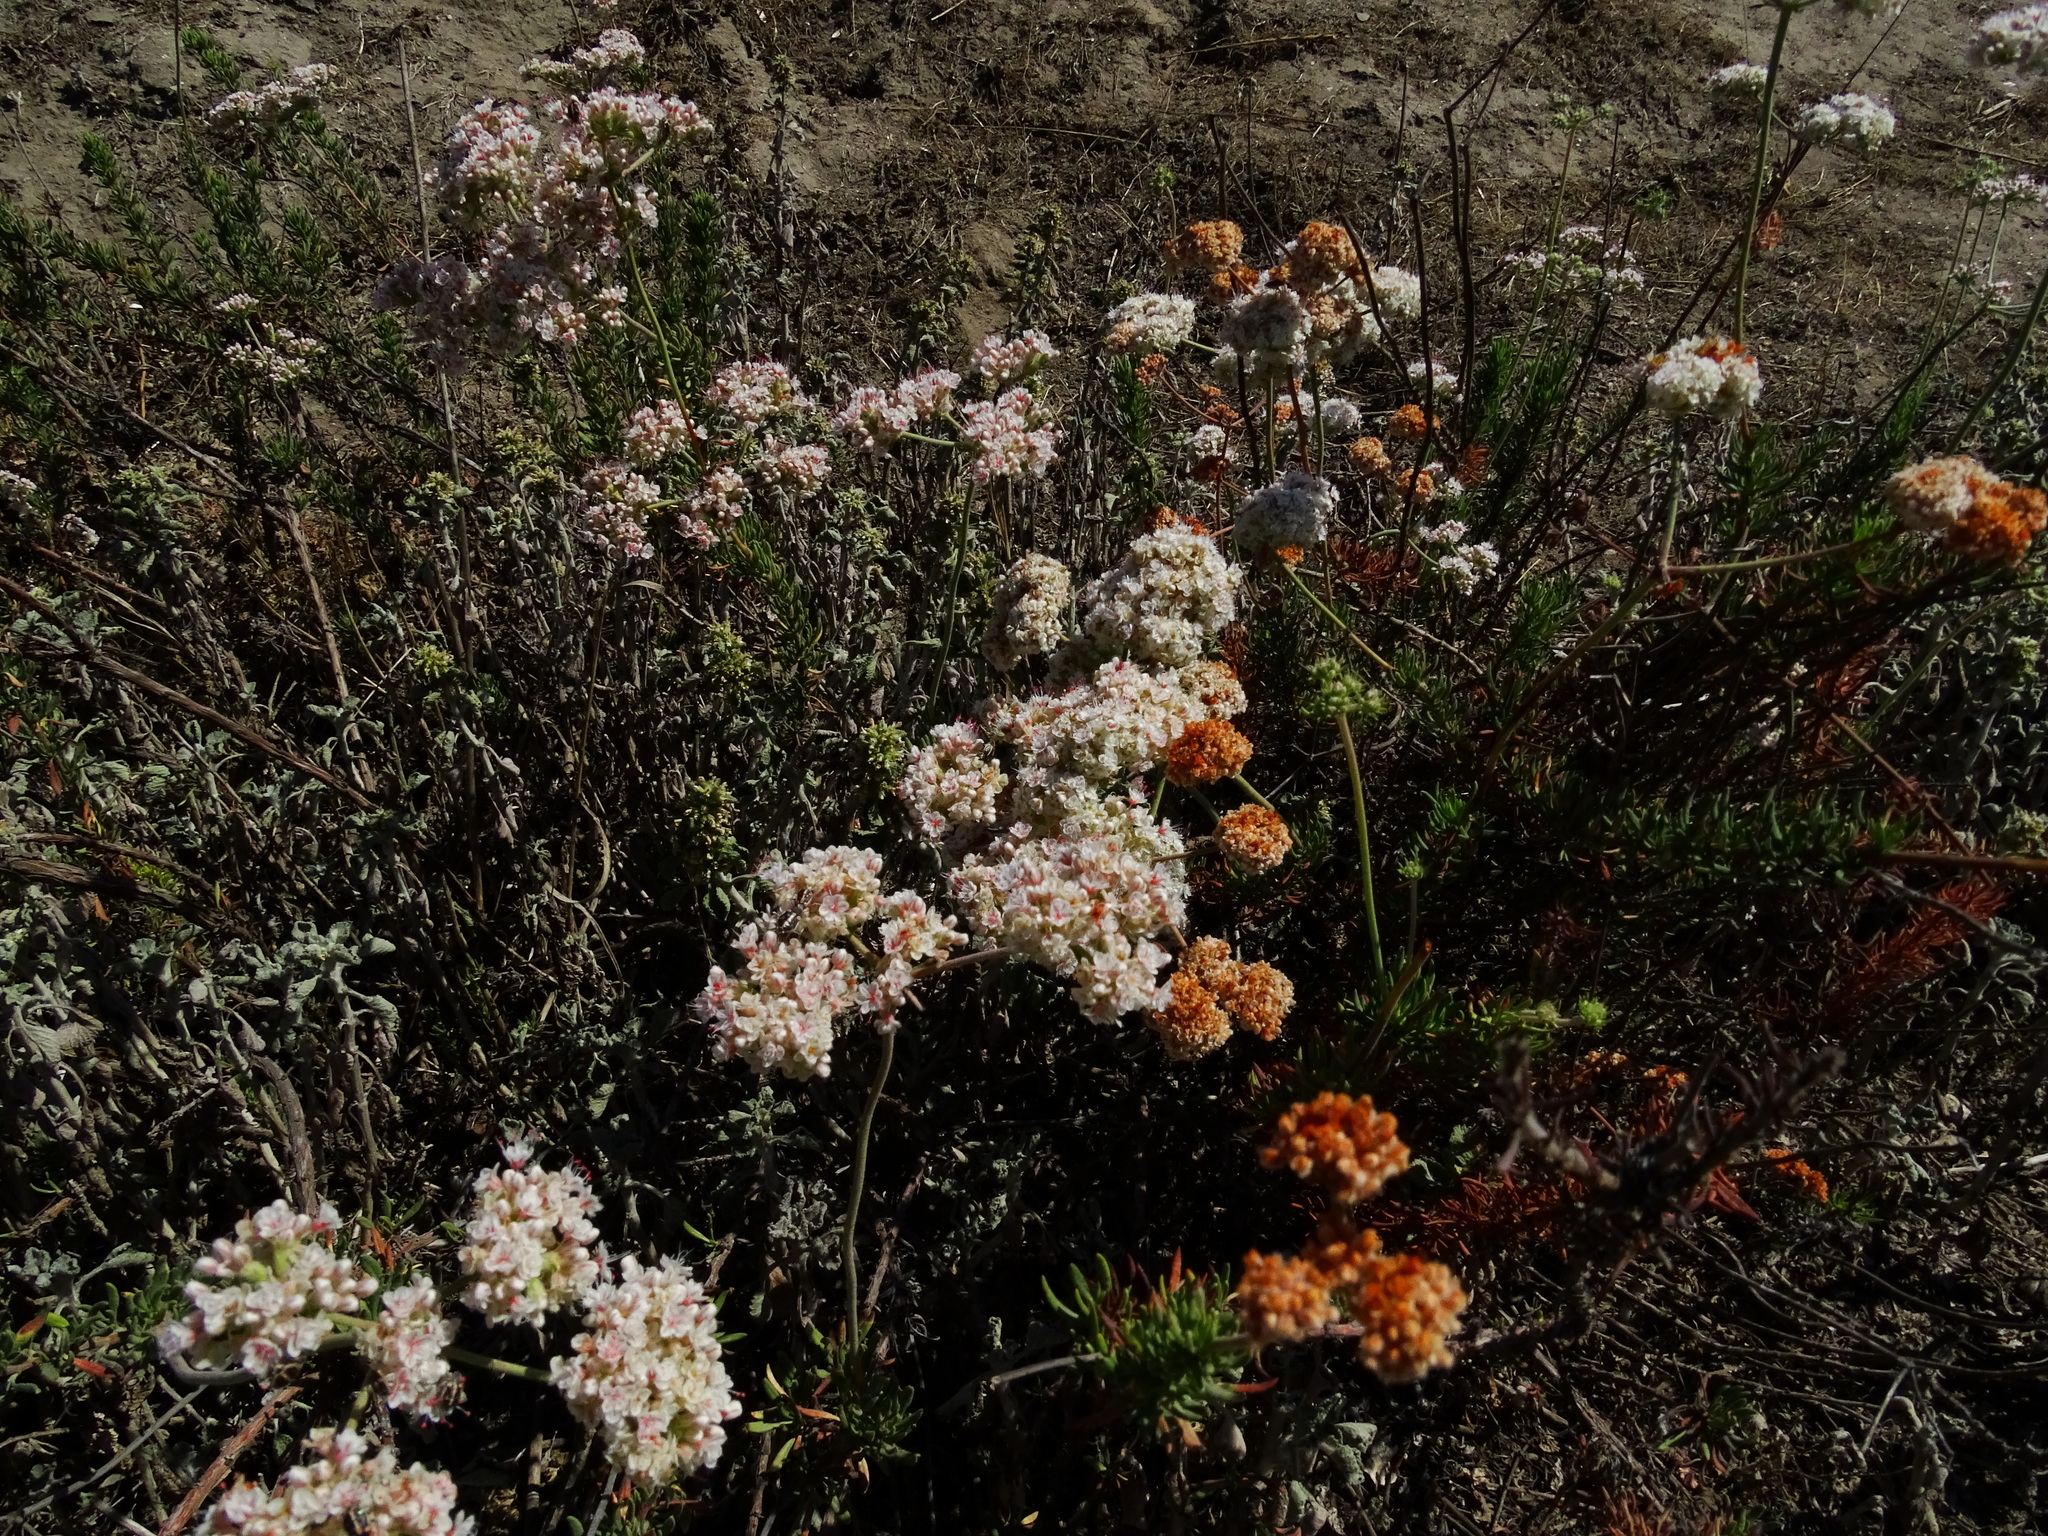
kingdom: Plantae
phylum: Tracheophyta
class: Magnoliopsida
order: Caryophyllales
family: Polygonaceae
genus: Eriogonum
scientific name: Eriogonum fasciculatum
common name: California wild buckwheat
